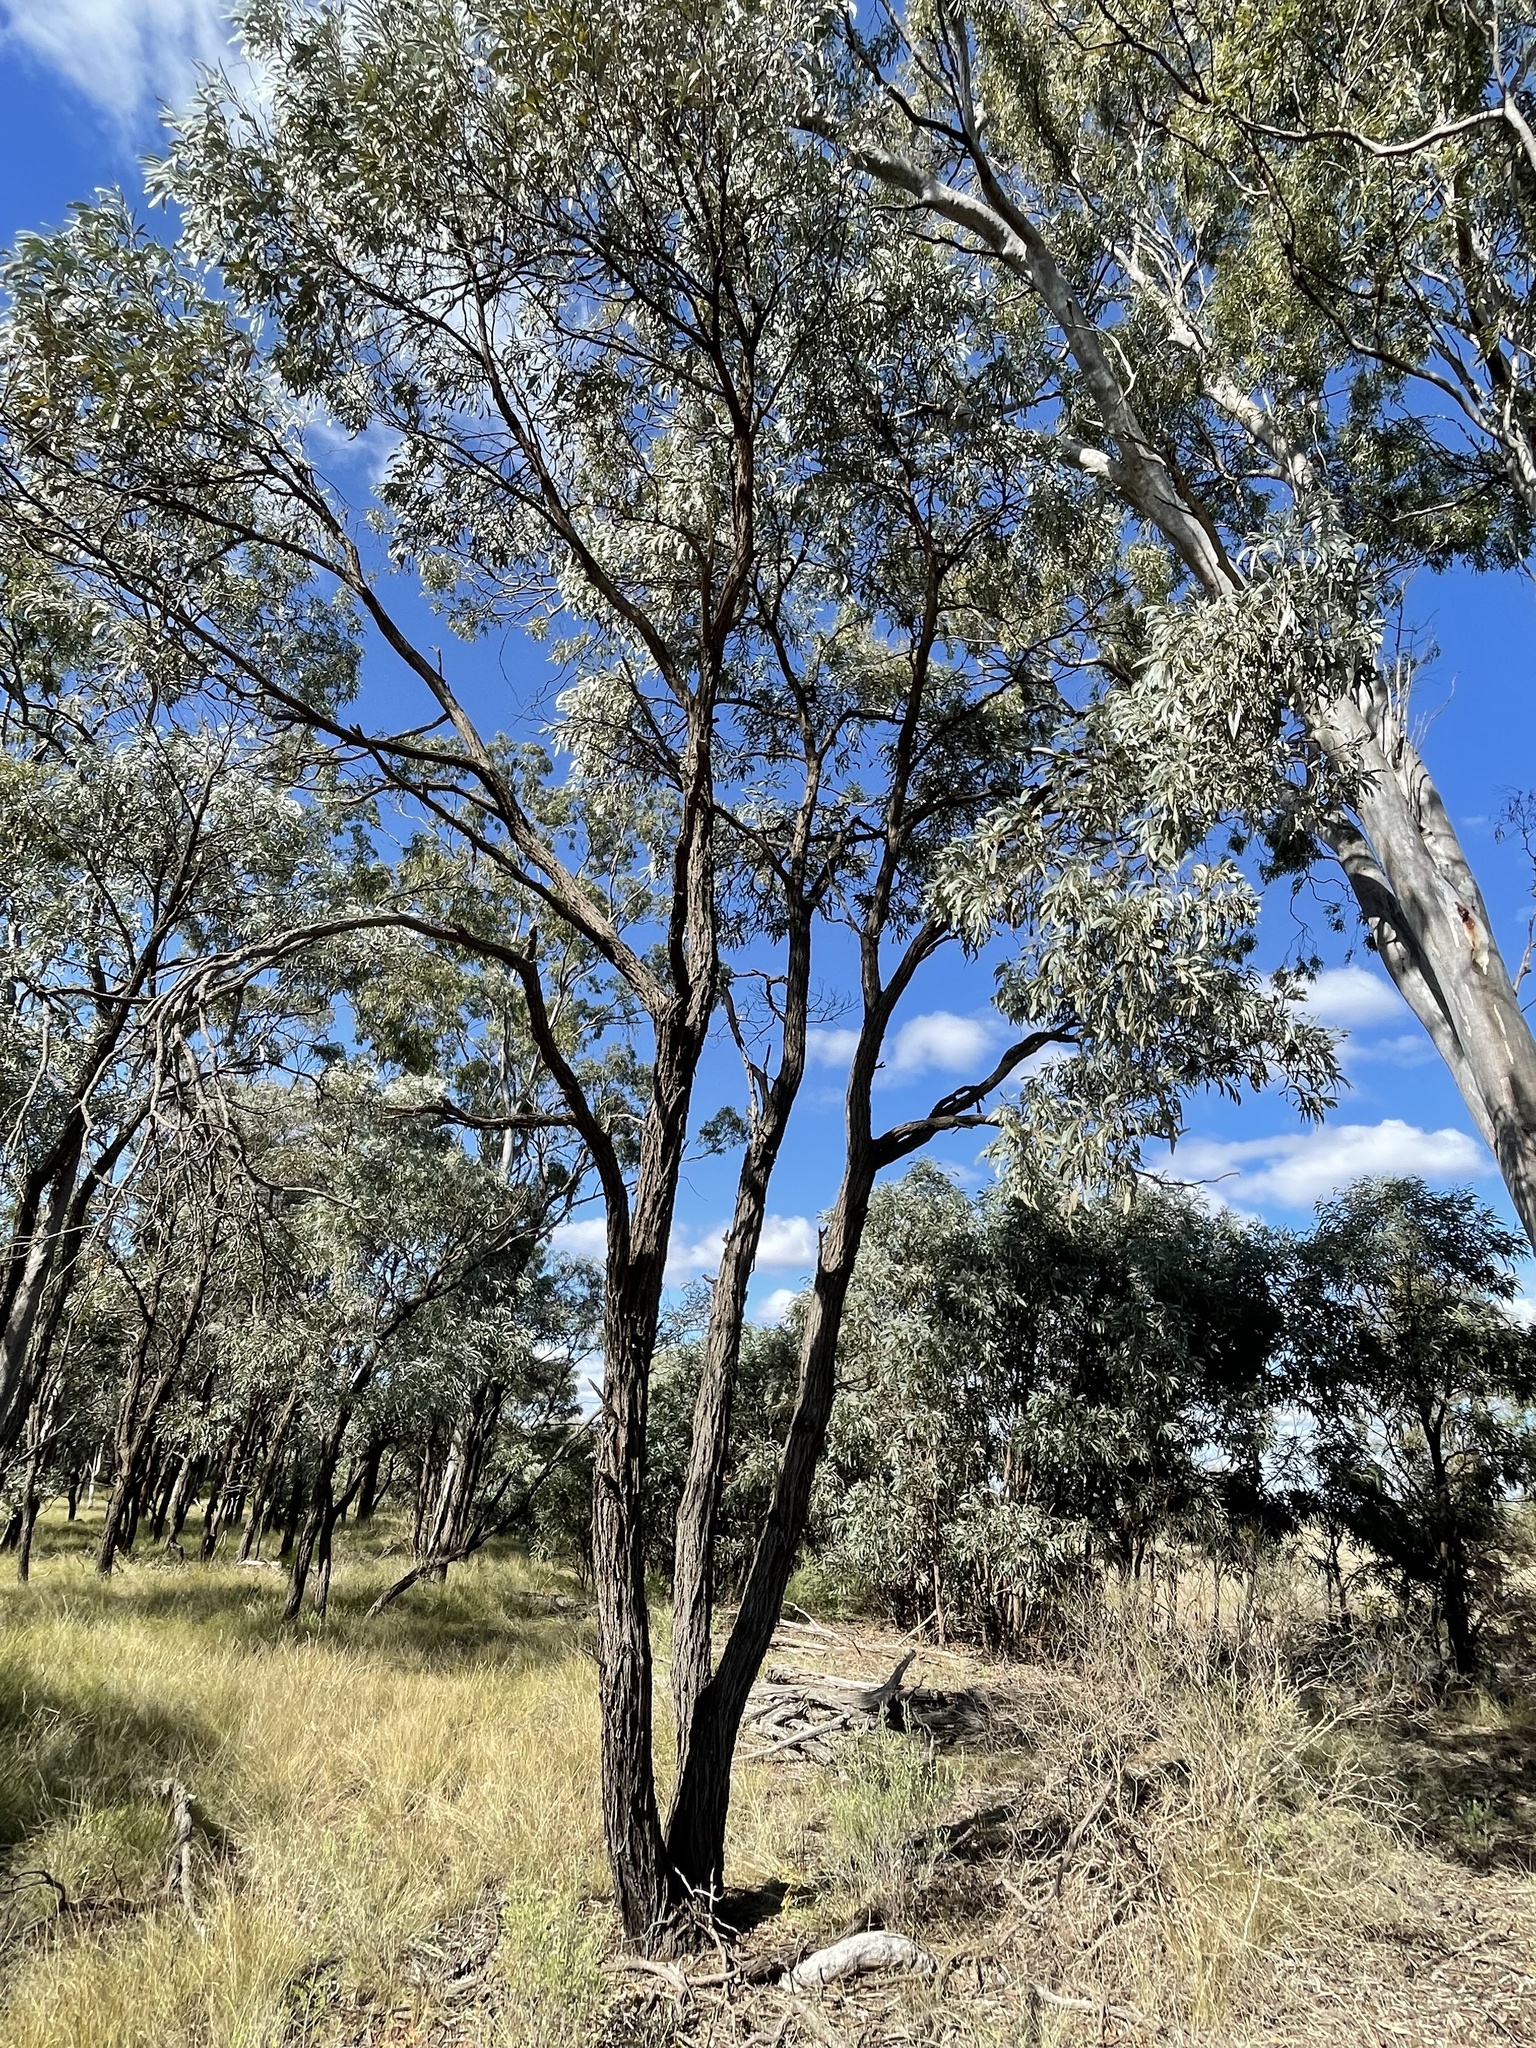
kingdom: Plantae
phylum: Tracheophyta
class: Magnoliopsida
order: Fabales
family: Fabaceae
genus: Acacia
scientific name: Acacia harpophylla
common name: Brigalow
